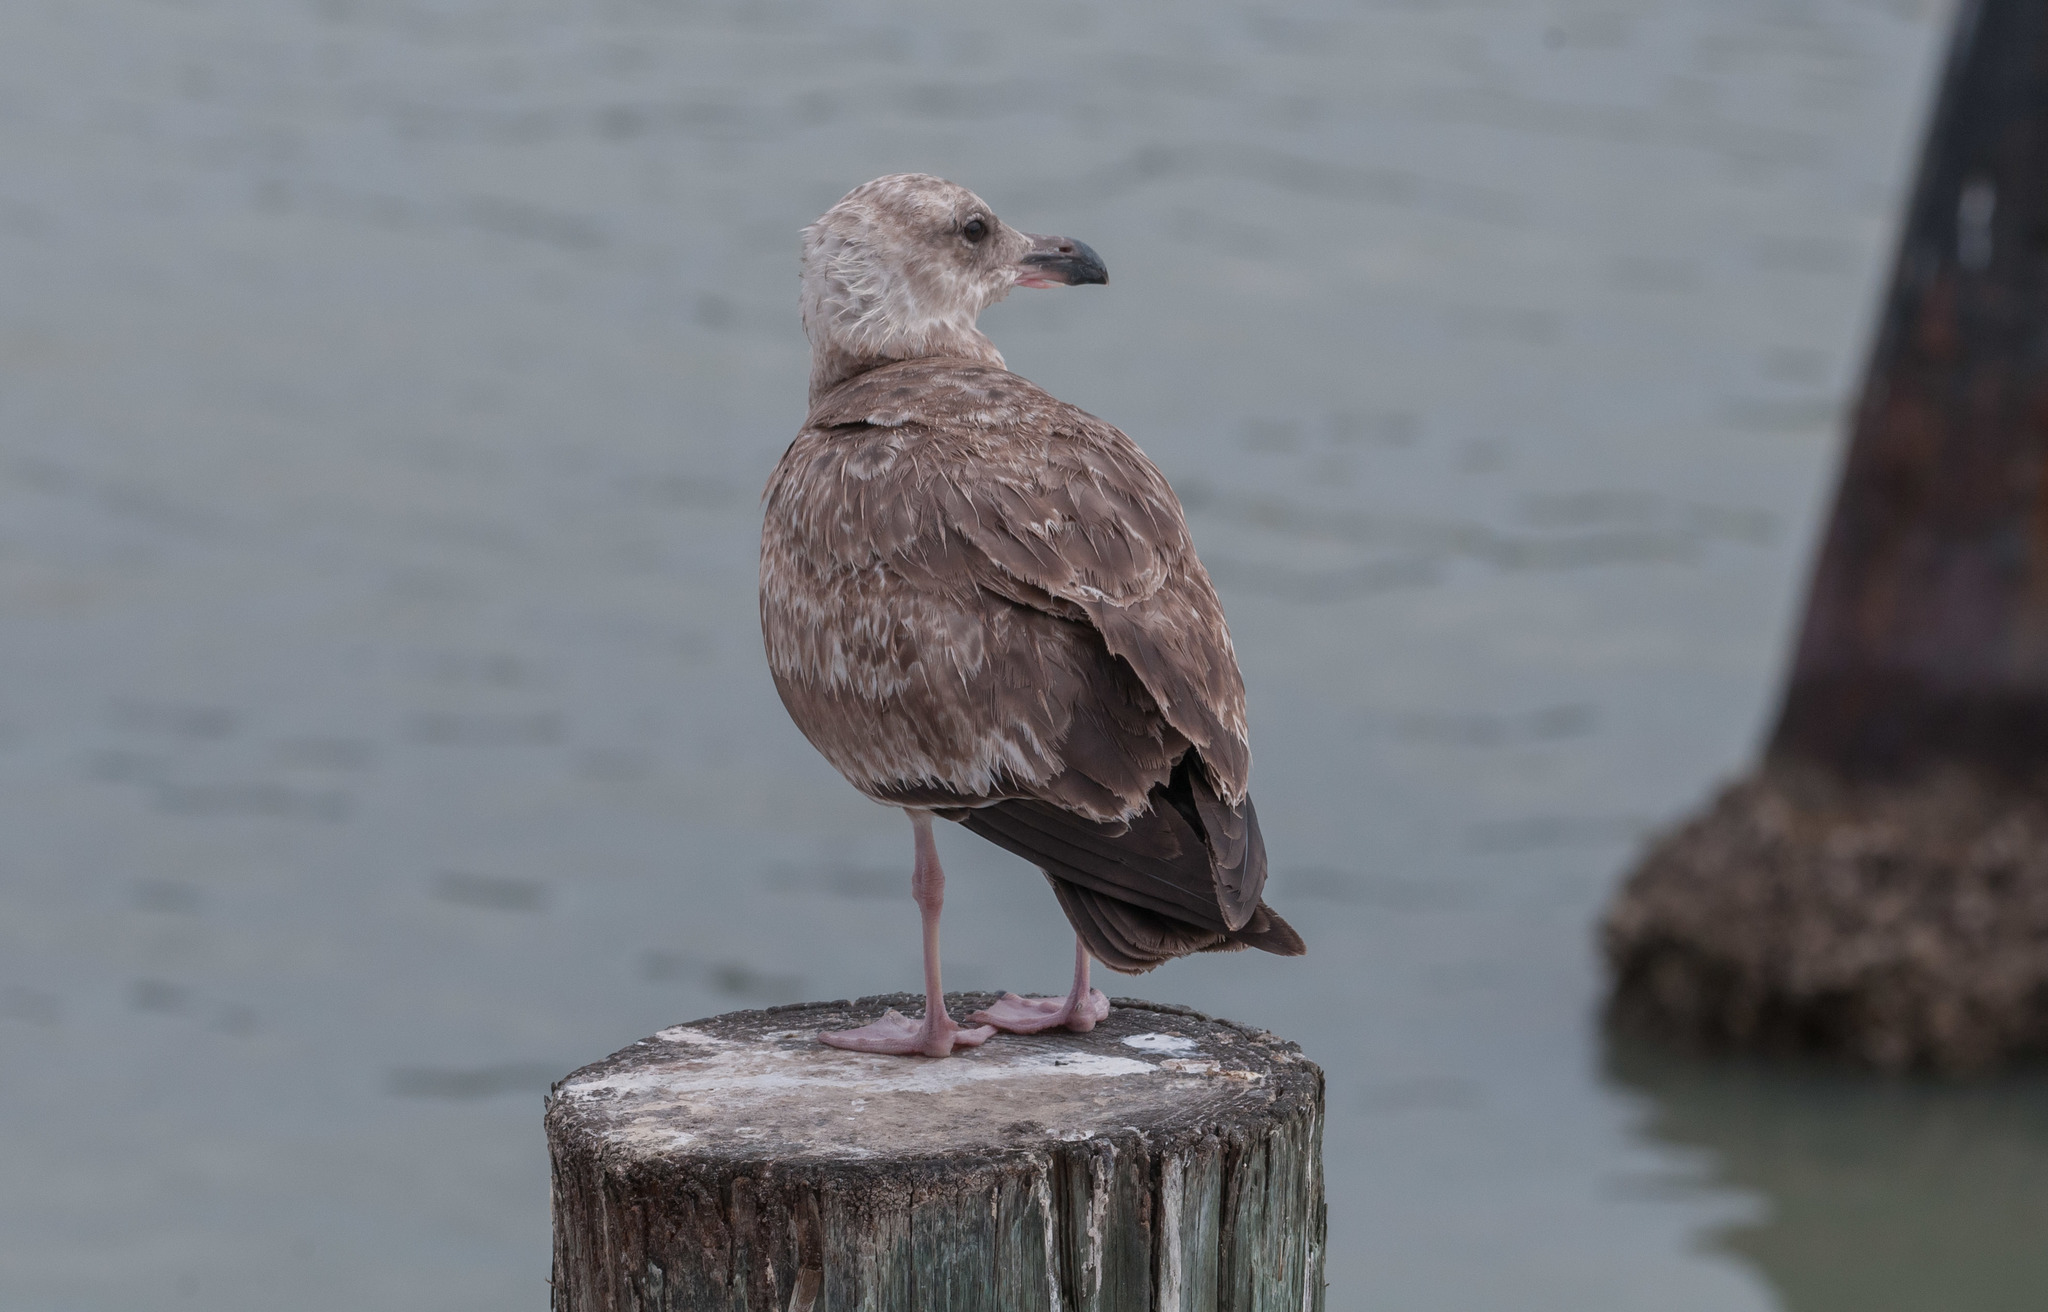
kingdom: Animalia
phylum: Chordata
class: Aves
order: Charadriiformes
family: Laridae
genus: Larus
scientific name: Larus argentatus
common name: Herring gull
